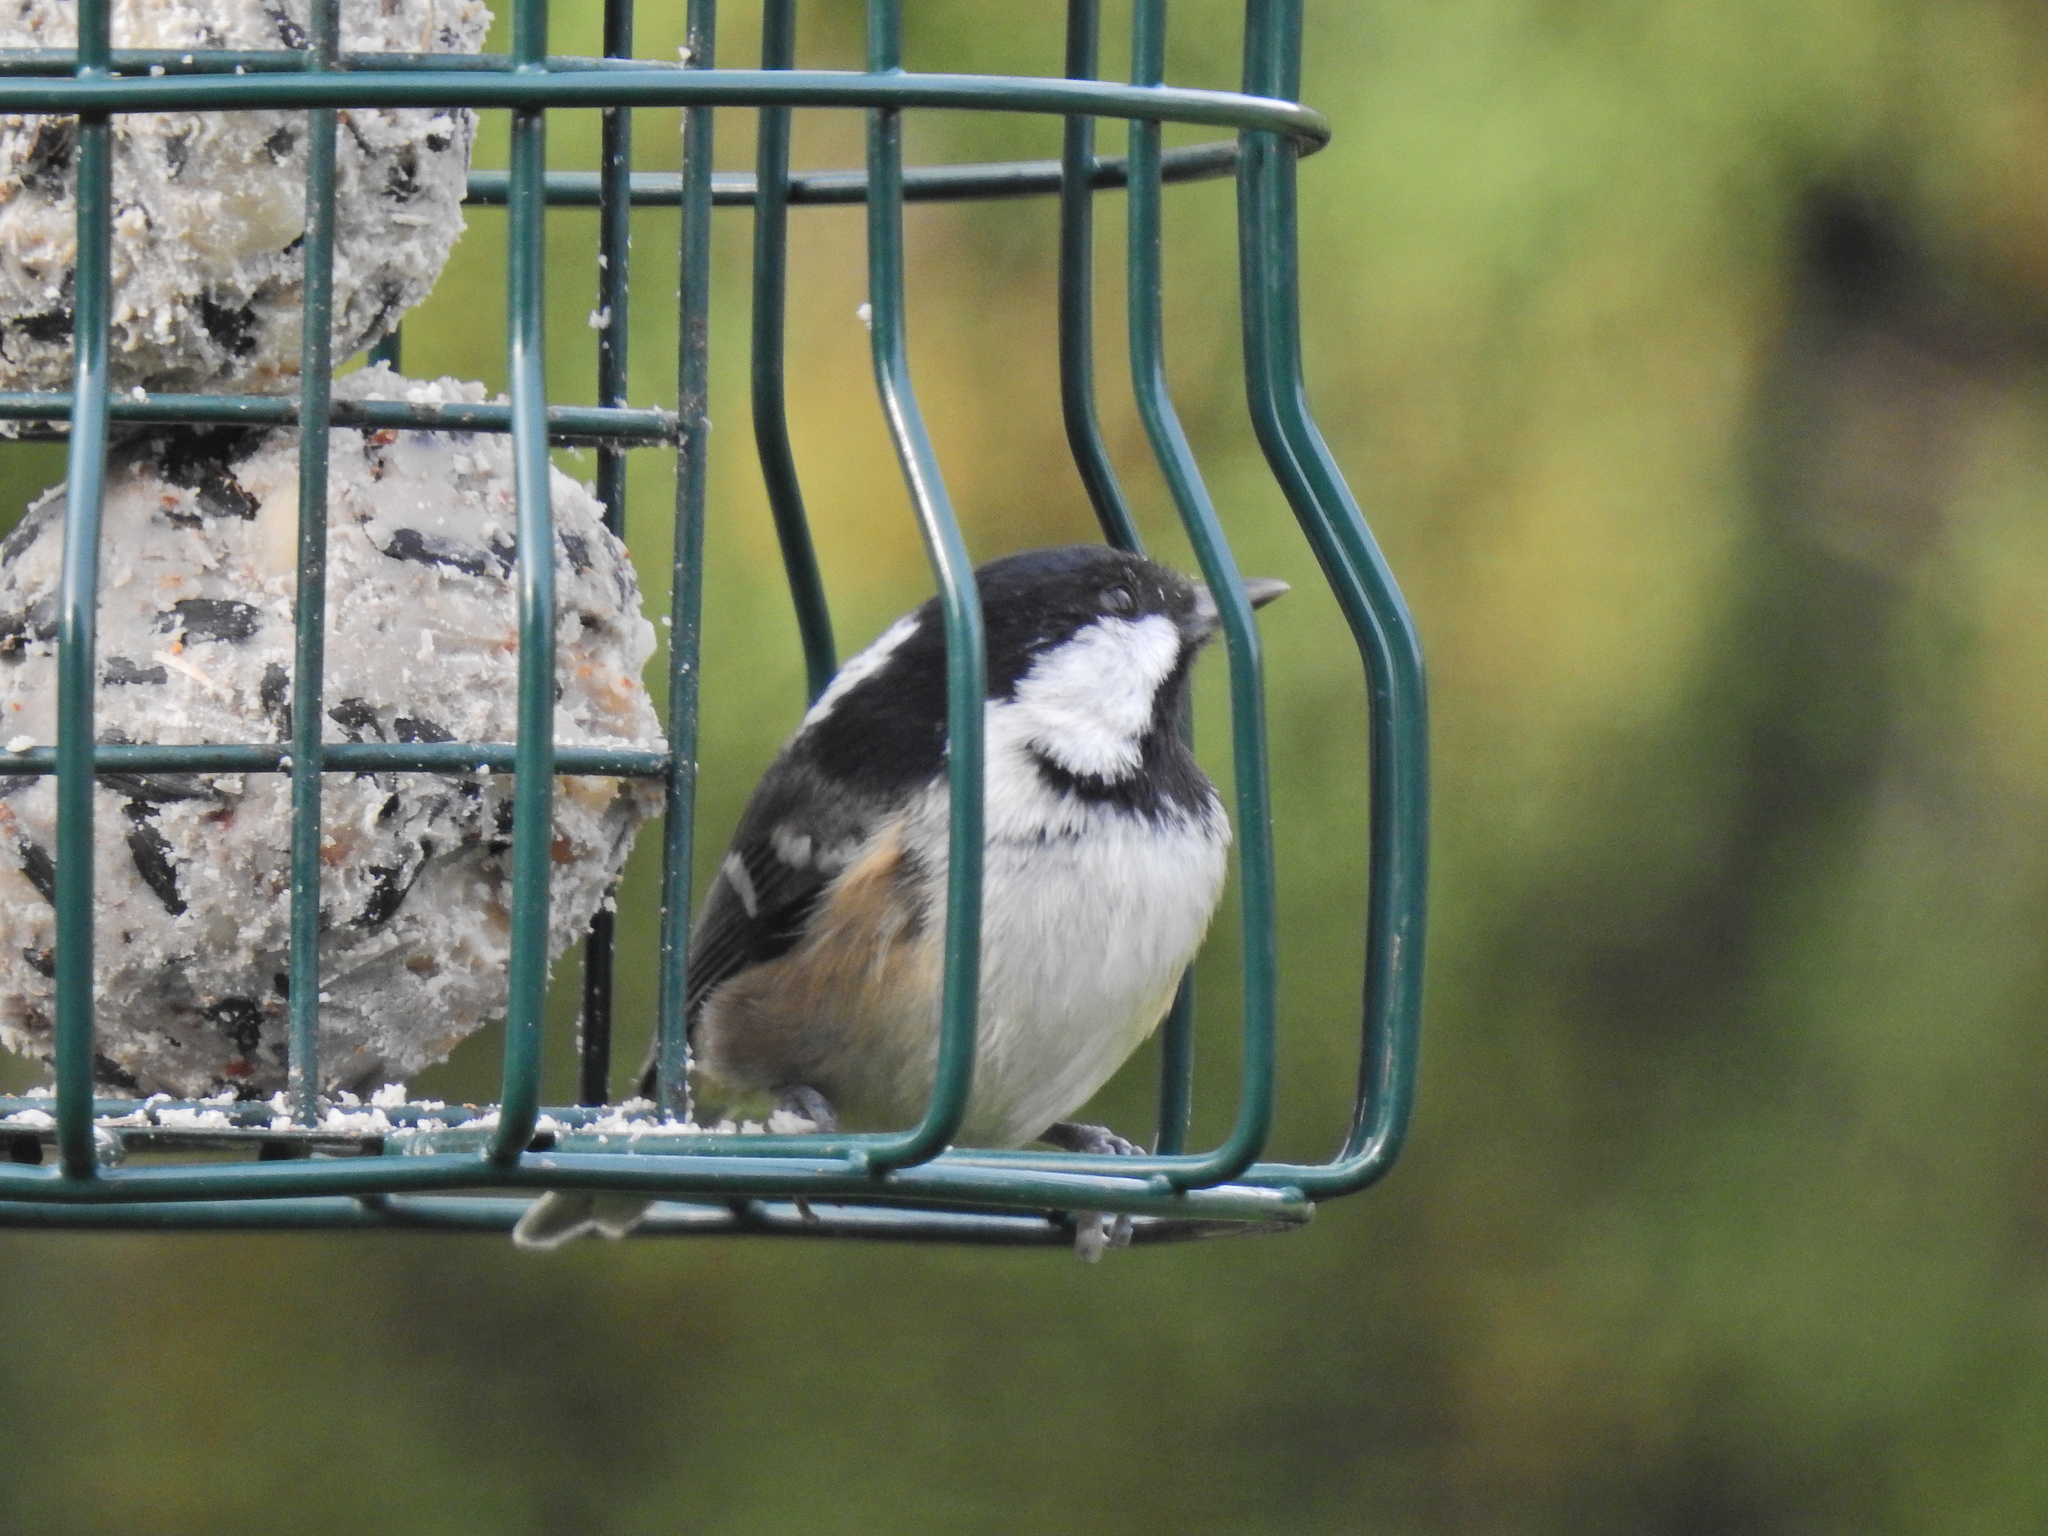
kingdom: Animalia
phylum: Chordata
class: Aves
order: Passeriformes
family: Paridae
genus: Periparus
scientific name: Periparus ater
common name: Coal tit
